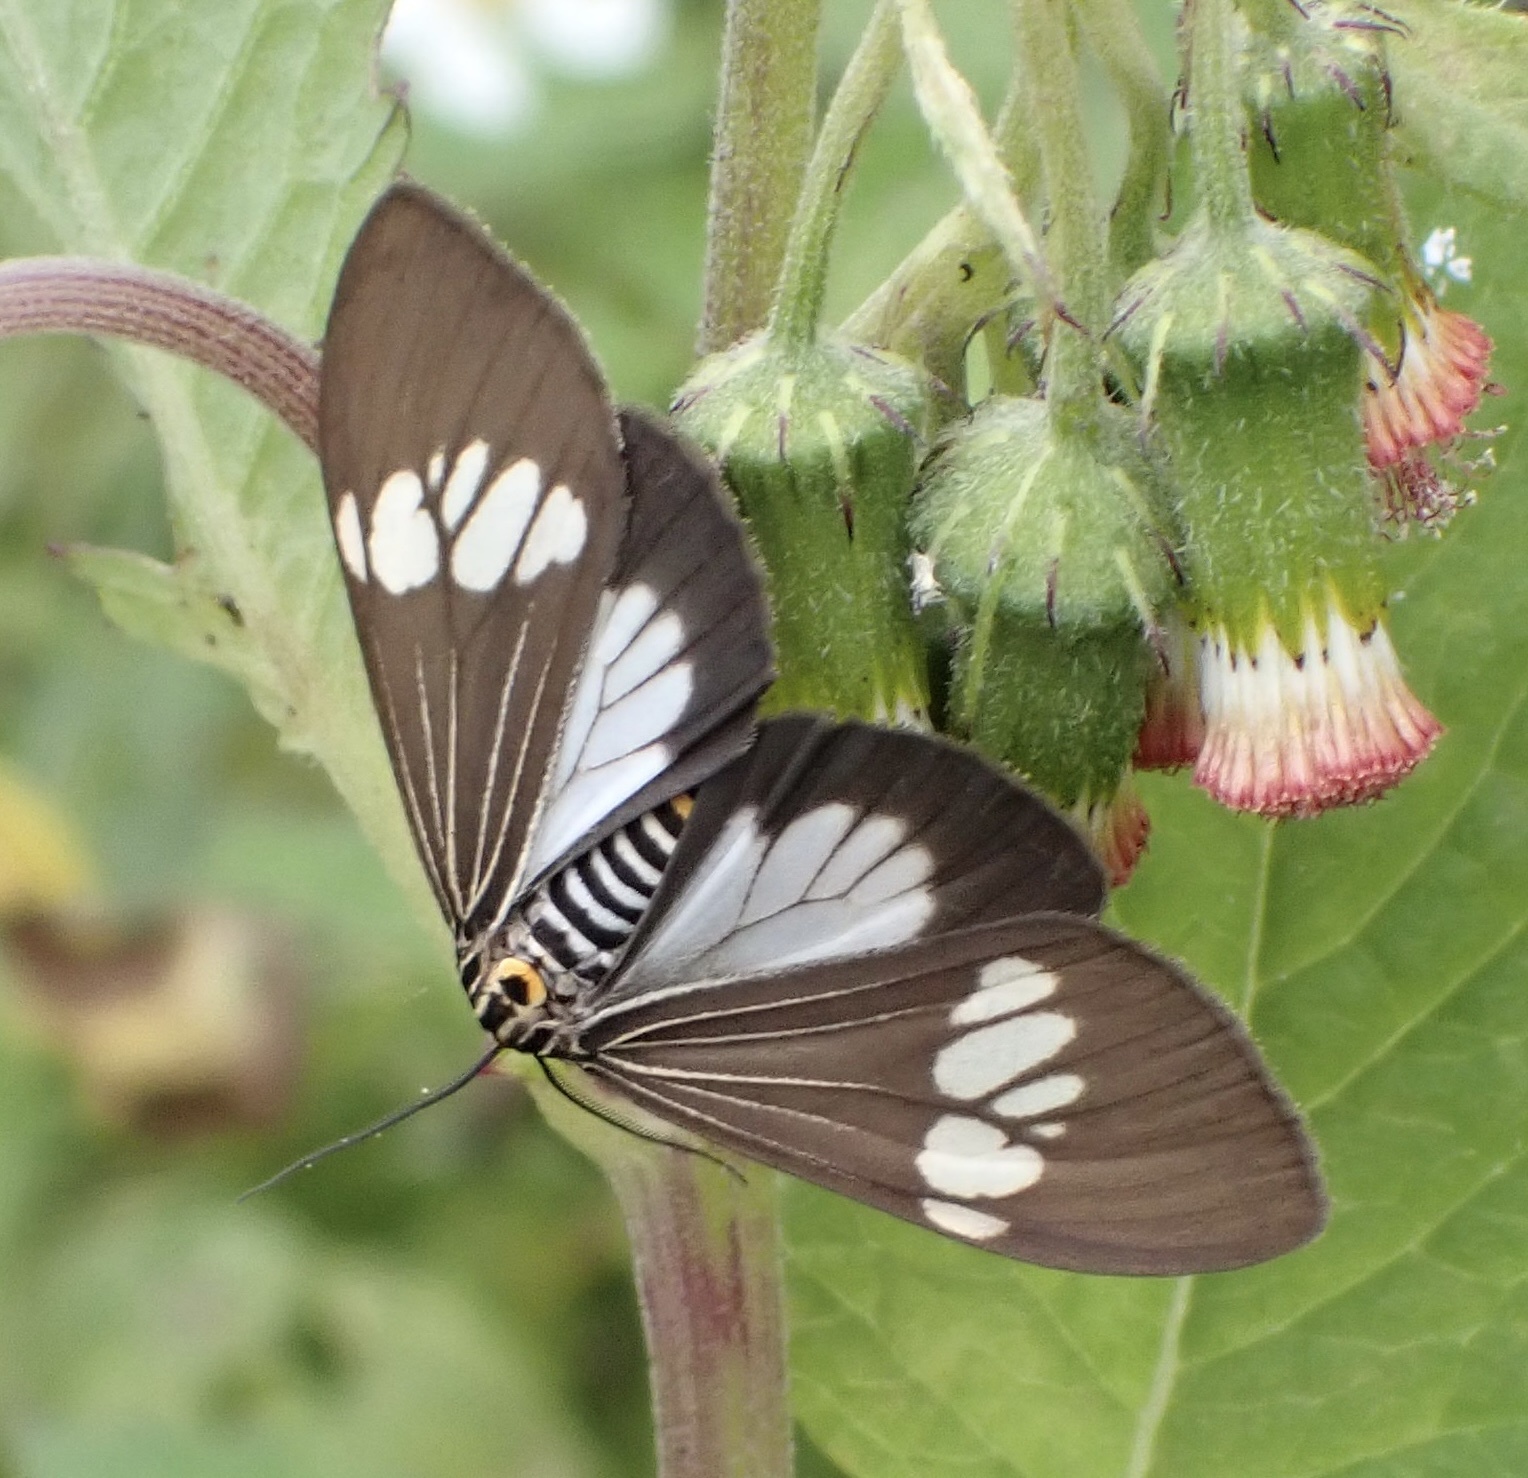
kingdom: Animalia
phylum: Arthropoda
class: Insecta
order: Lepidoptera
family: Erebidae
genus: Nyctemera
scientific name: Nyctemera baulus
